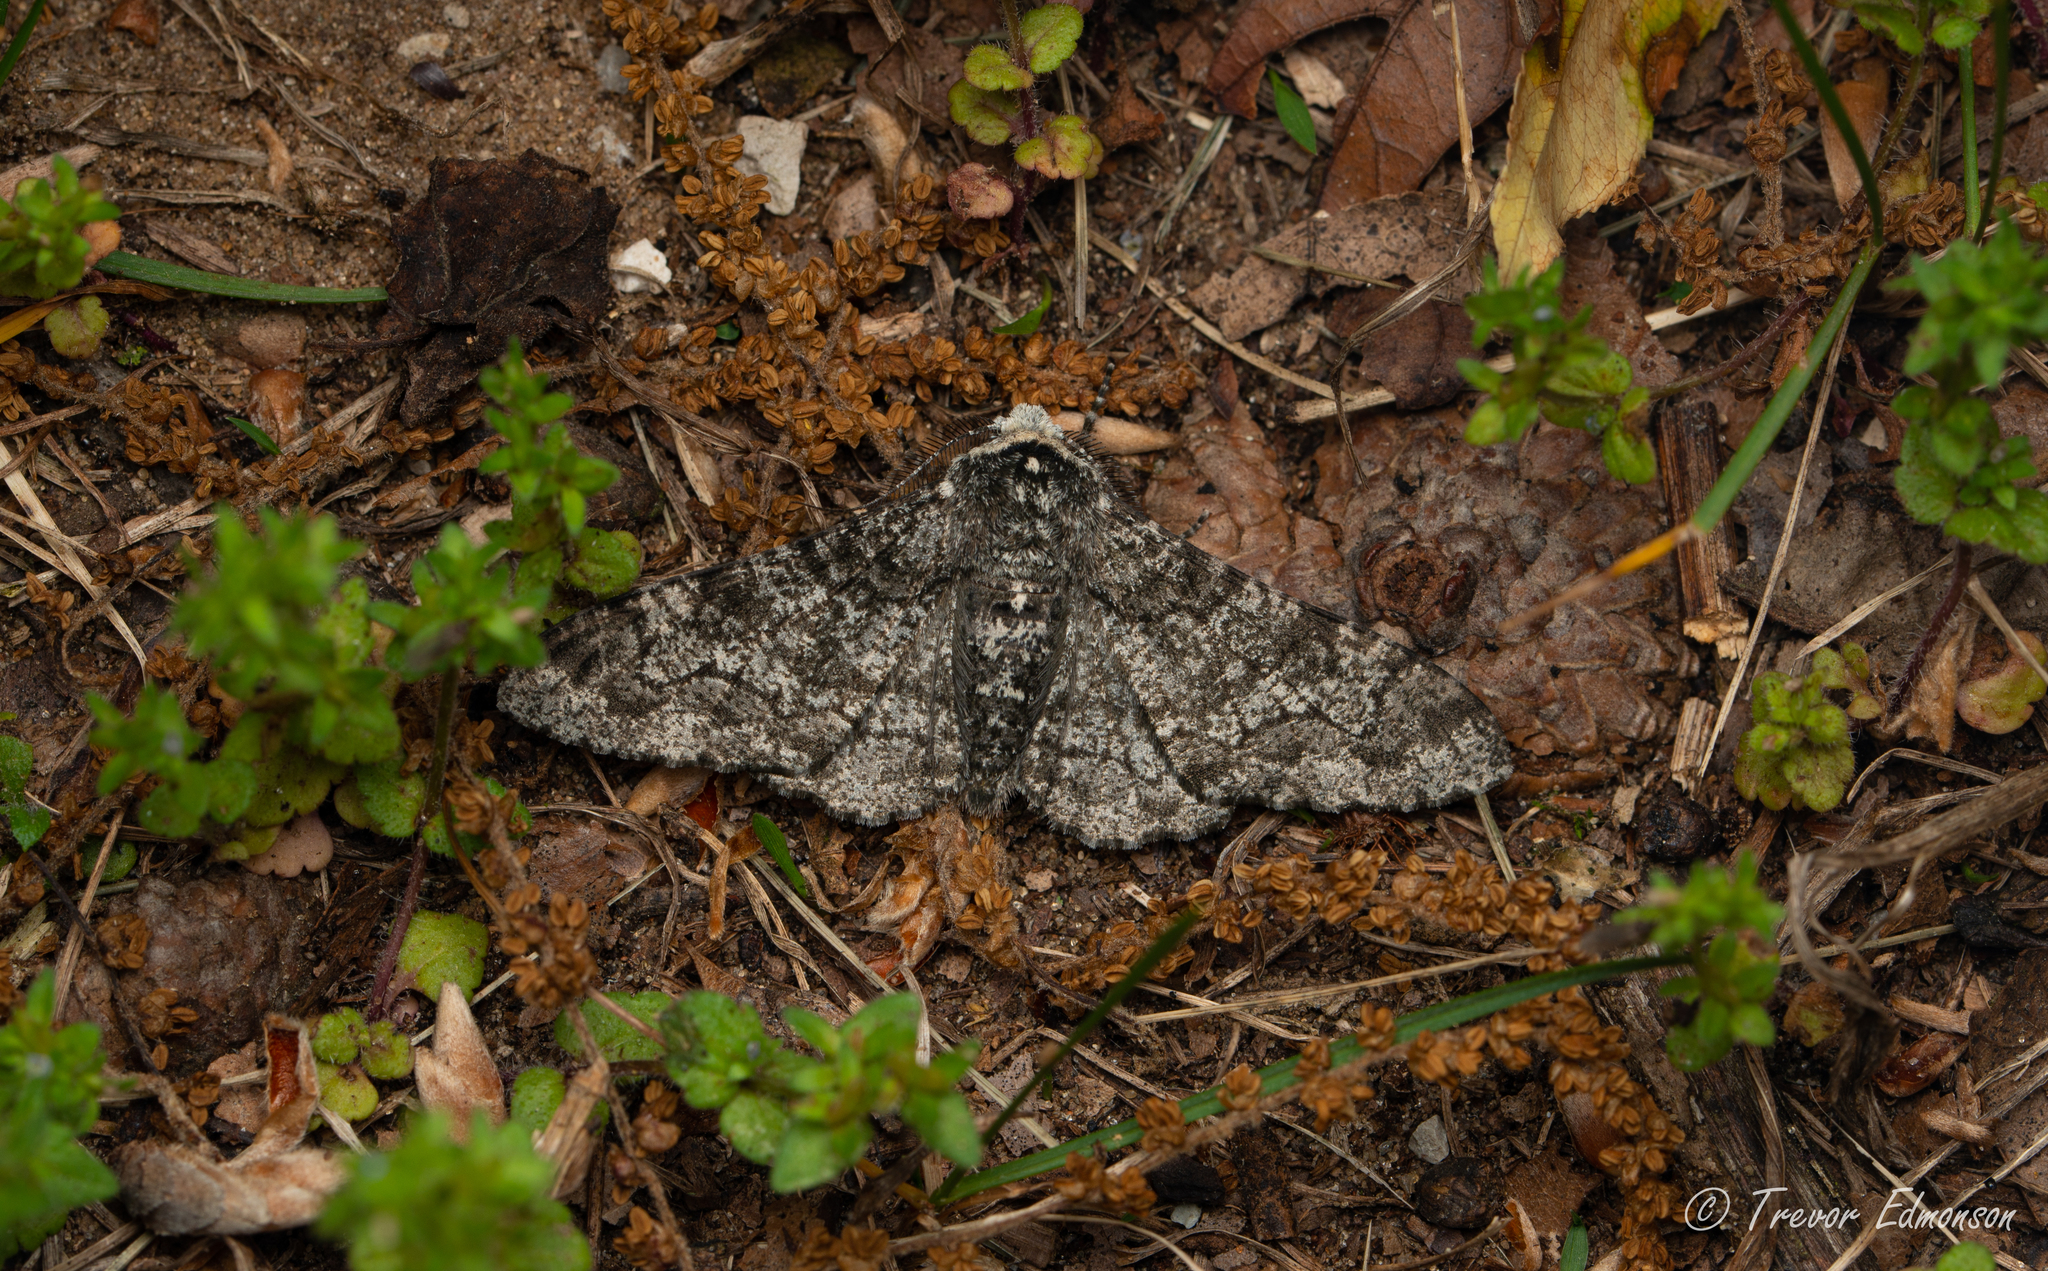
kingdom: Animalia
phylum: Arthropoda
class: Insecta
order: Lepidoptera
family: Geometridae
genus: Biston
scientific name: Biston betularia
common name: Peppered moth
